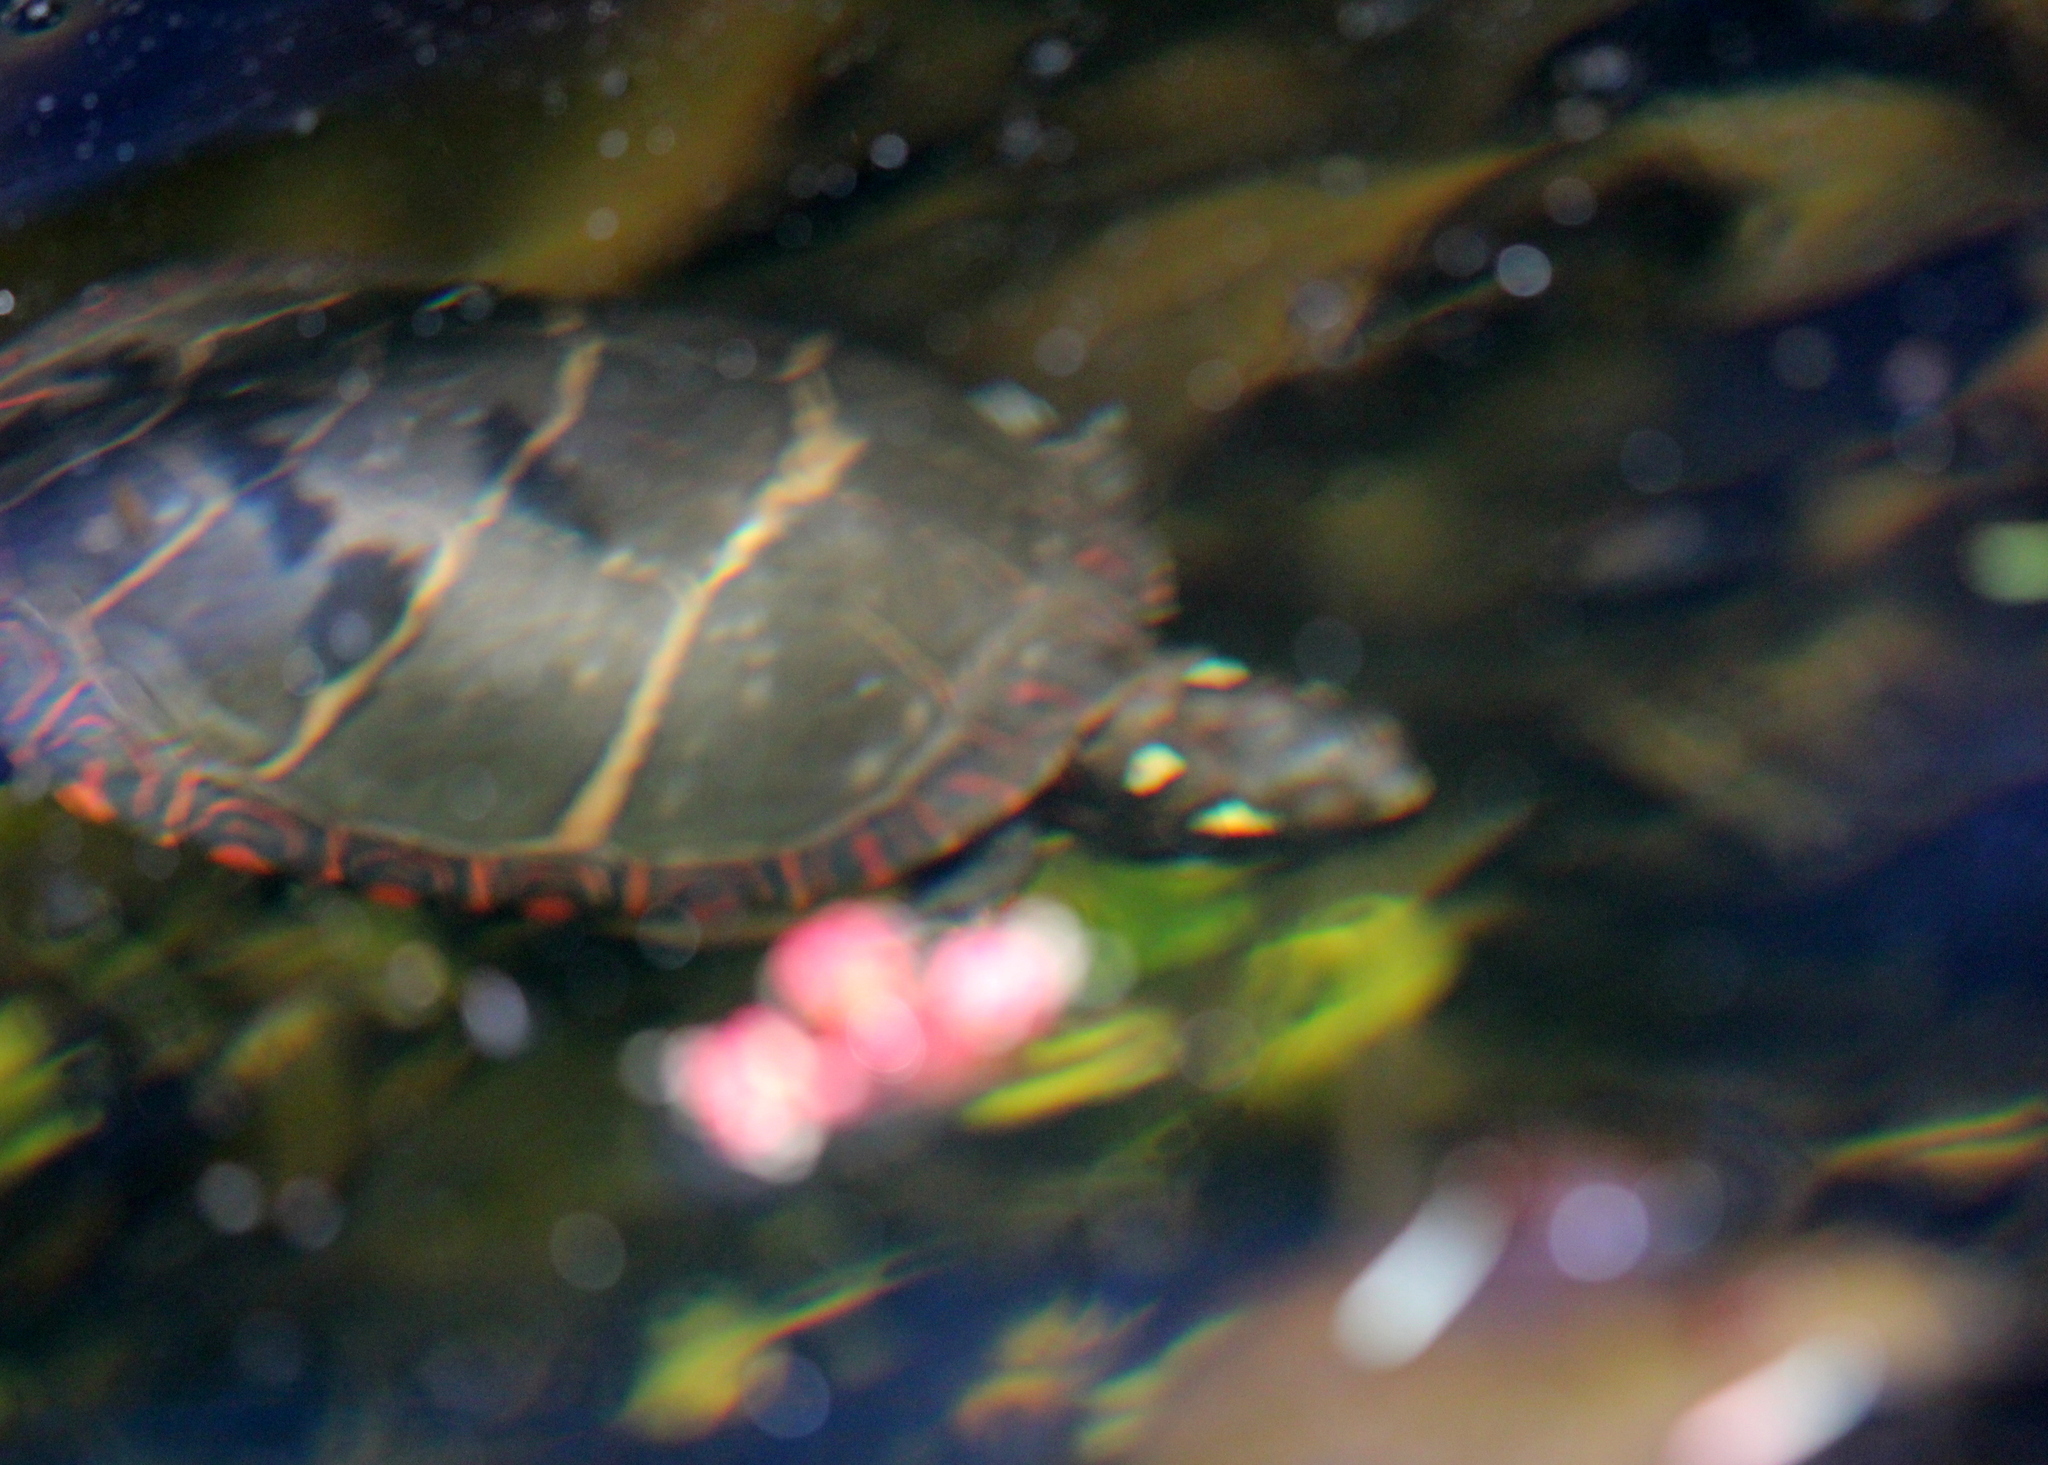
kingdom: Animalia
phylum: Chordata
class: Testudines
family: Emydidae
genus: Chrysemys
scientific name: Chrysemys picta
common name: Painted turtle
